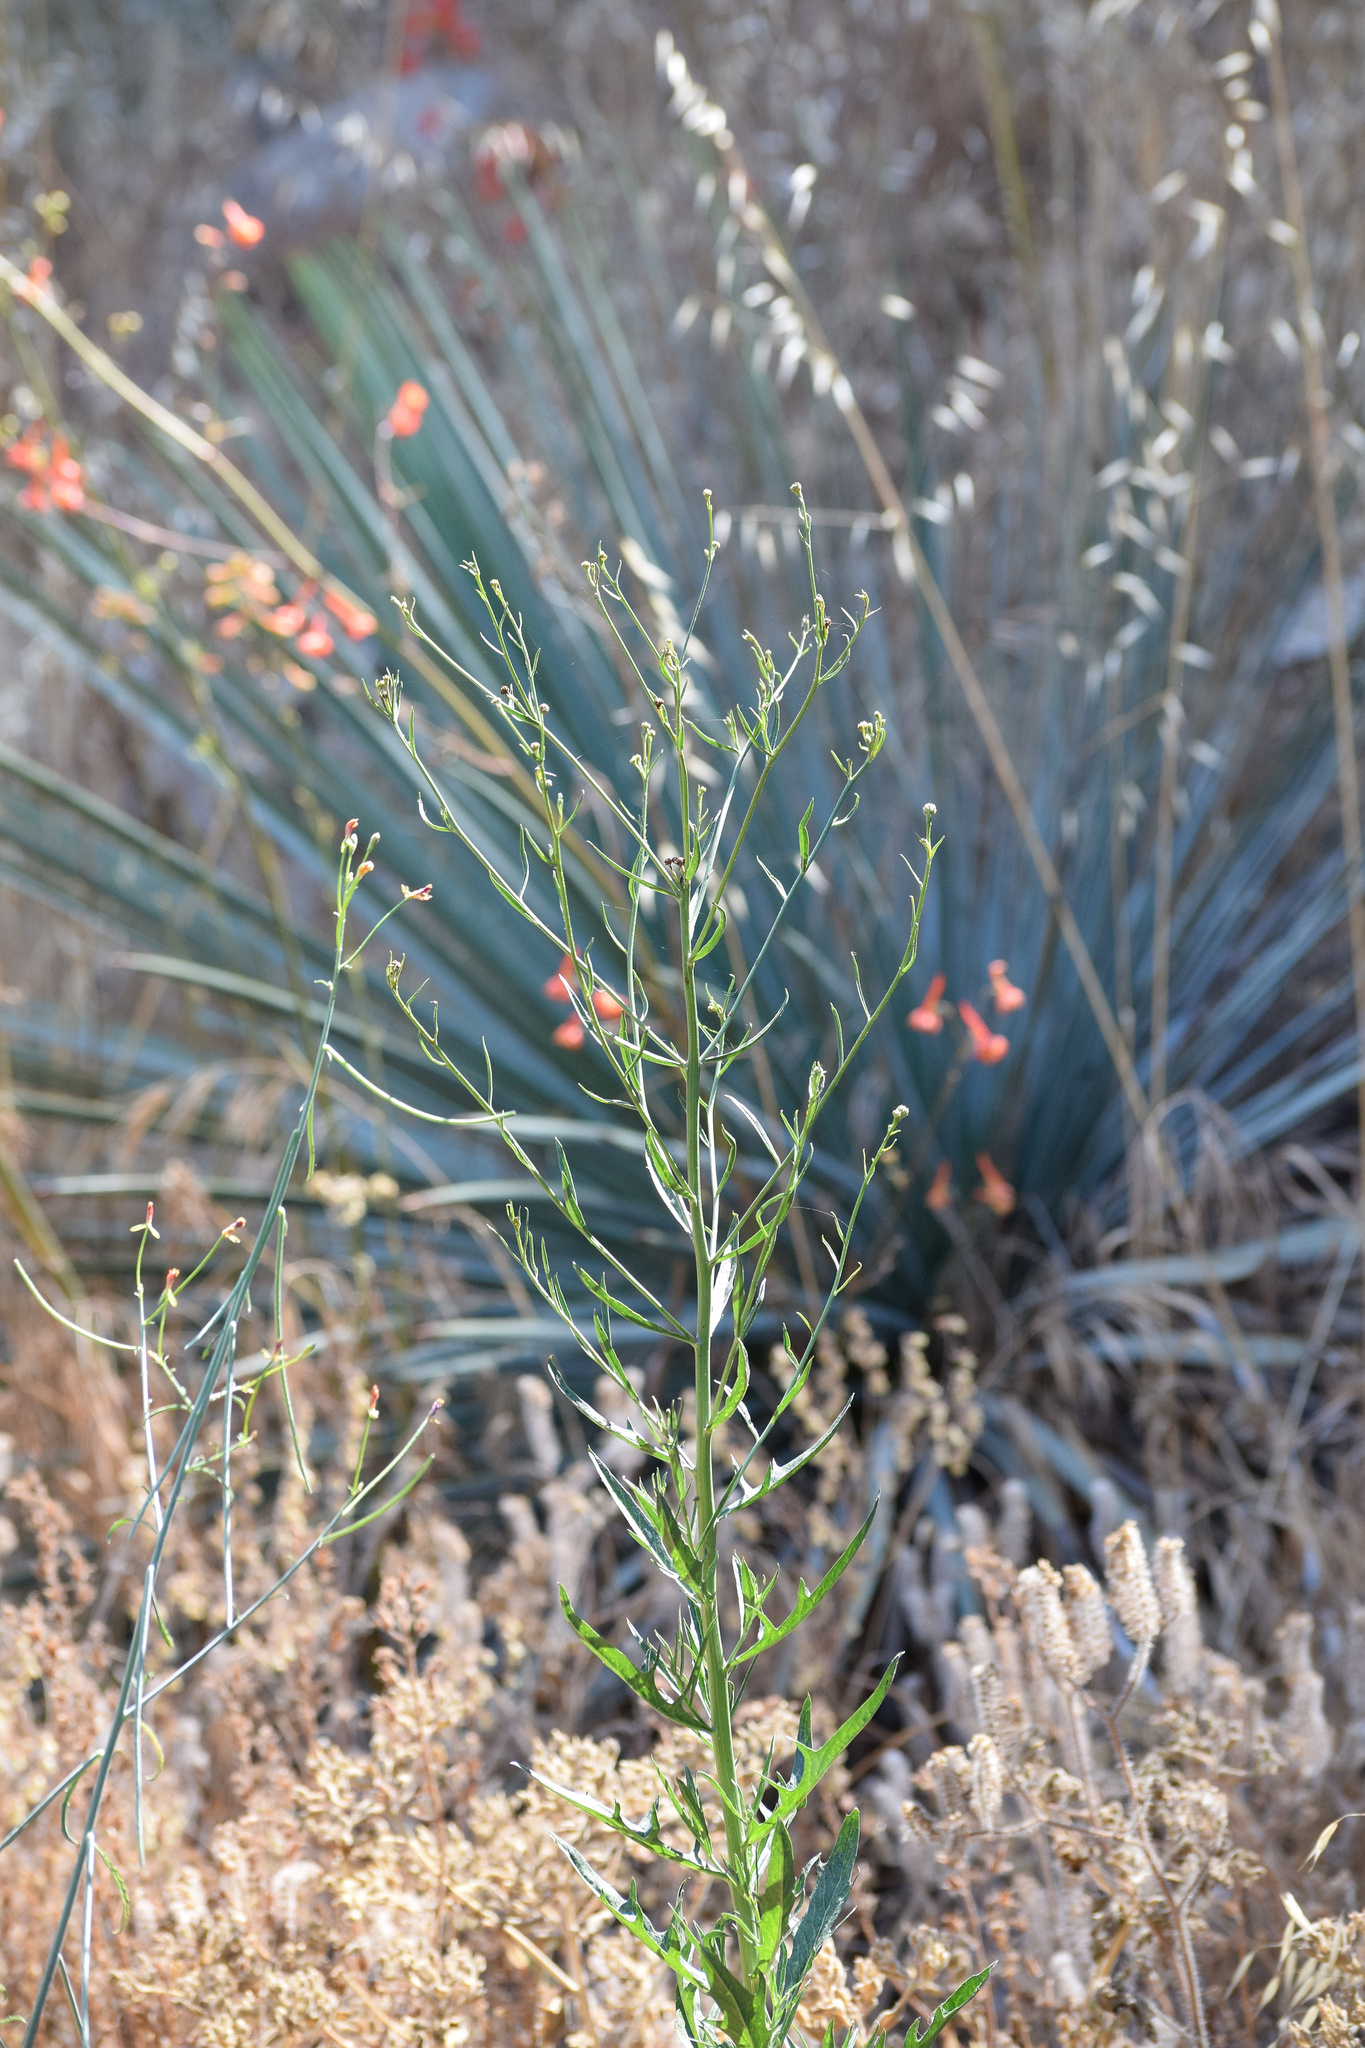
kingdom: Plantae
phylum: Tracheophyta
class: Magnoliopsida
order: Ranunculales
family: Ranunculaceae
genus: Delphinium
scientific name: Delphinium cardinale
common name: Scarlet larkspur
